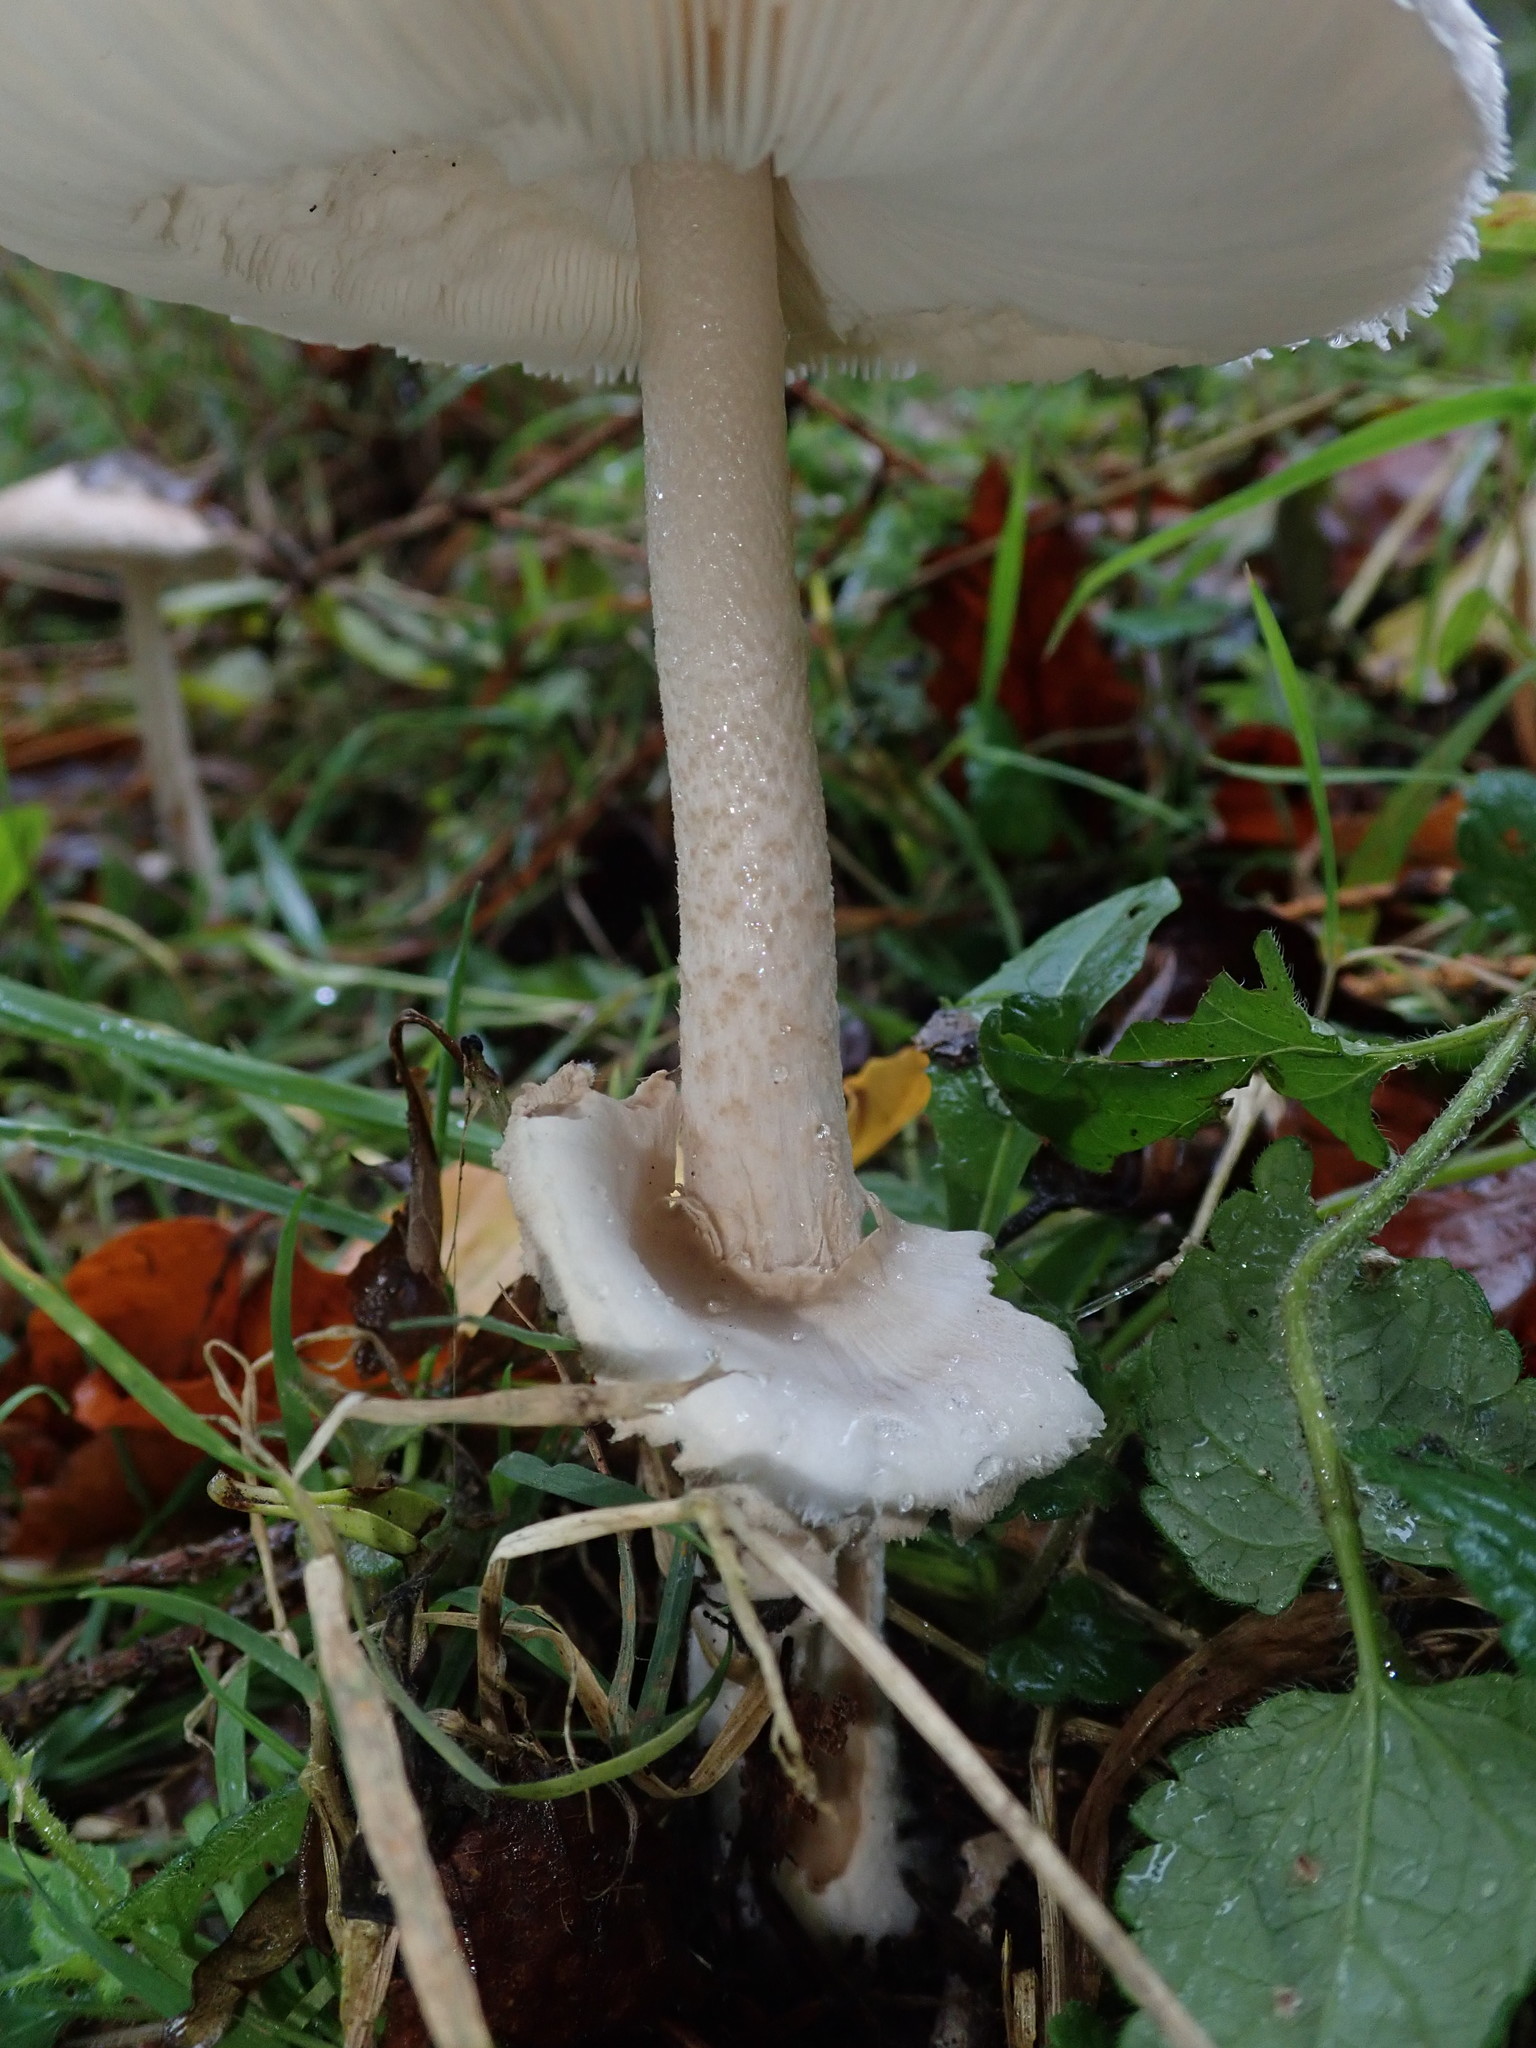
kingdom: Fungi
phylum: Basidiomycota
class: Agaricomycetes
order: Agaricales
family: Agaricaceae
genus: Macrolepiota
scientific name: Macrolepiota mastoidea
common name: Slender parasol
